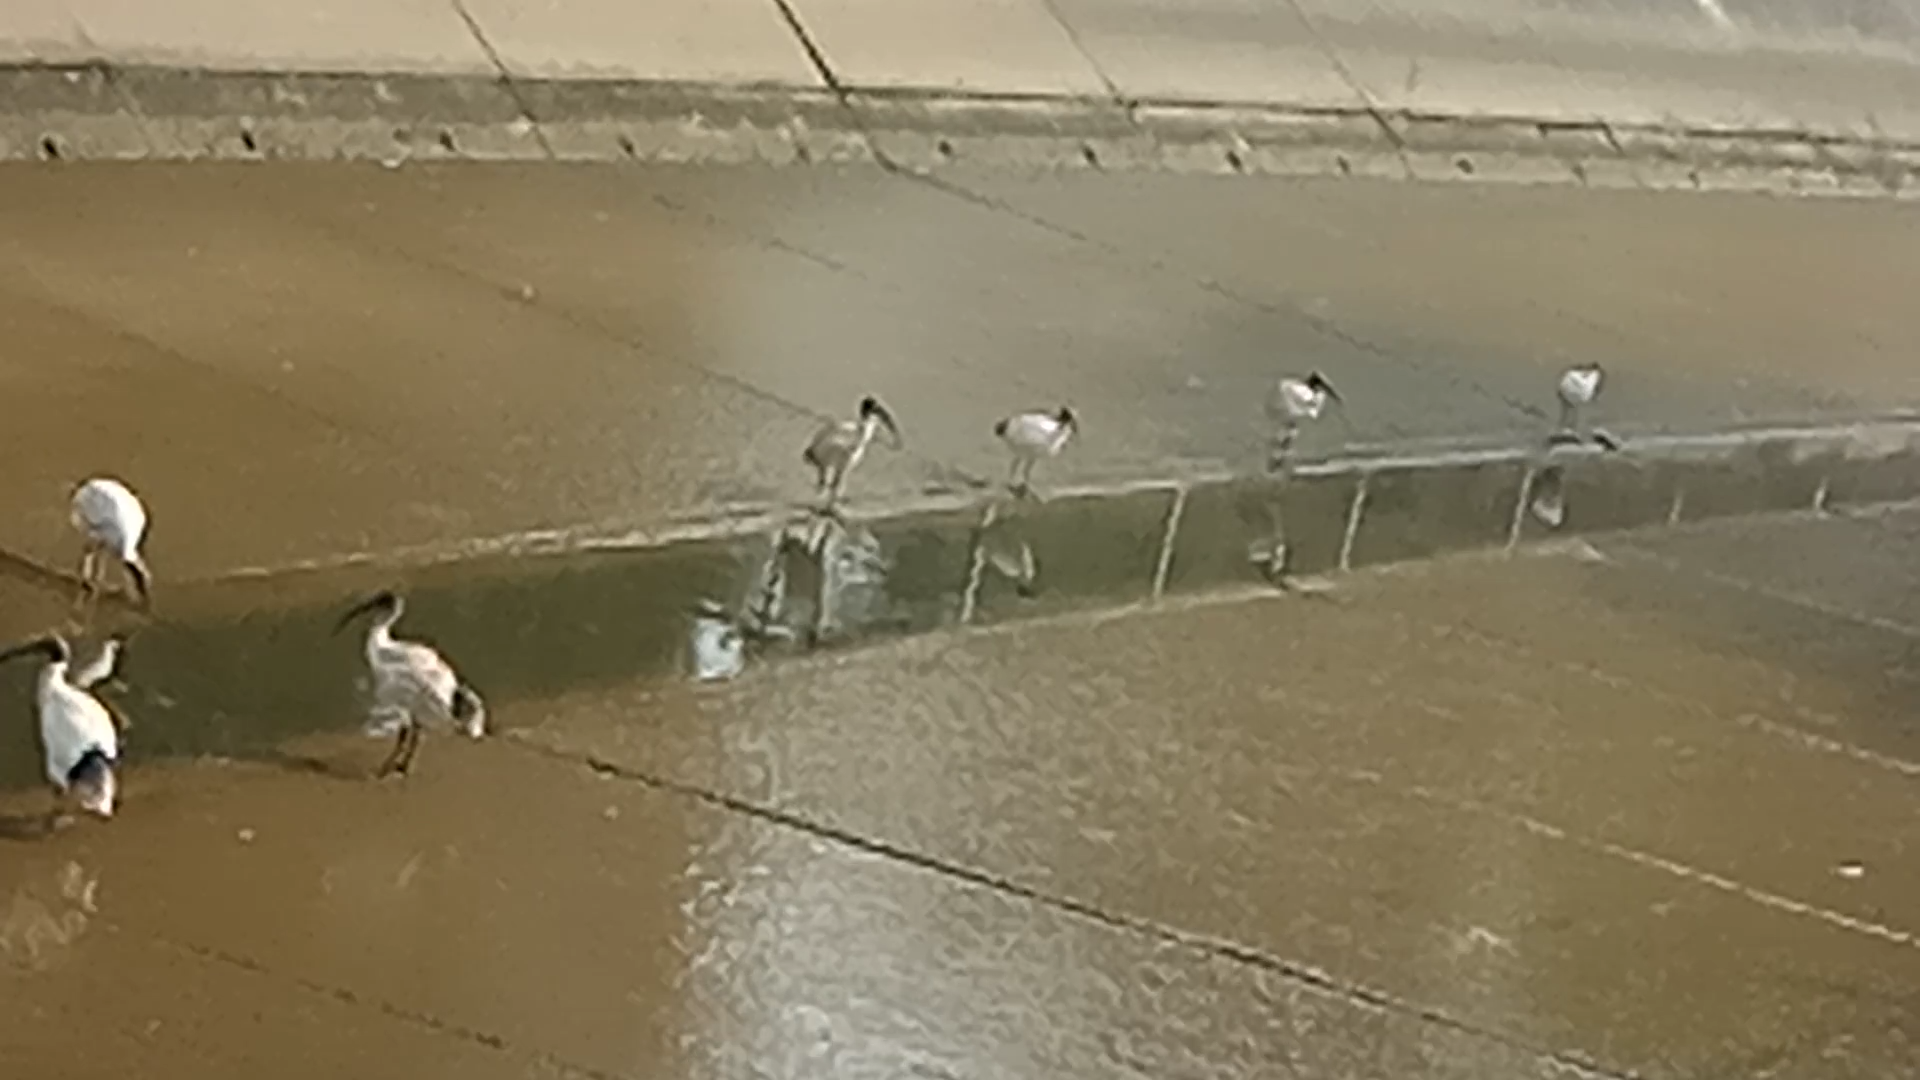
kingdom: Animalia
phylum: Chordata
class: Aves
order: Pelecaniformes
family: Threskiornithidae
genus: Threskiornis
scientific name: Threskiornis molucca
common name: Australian white ibis
